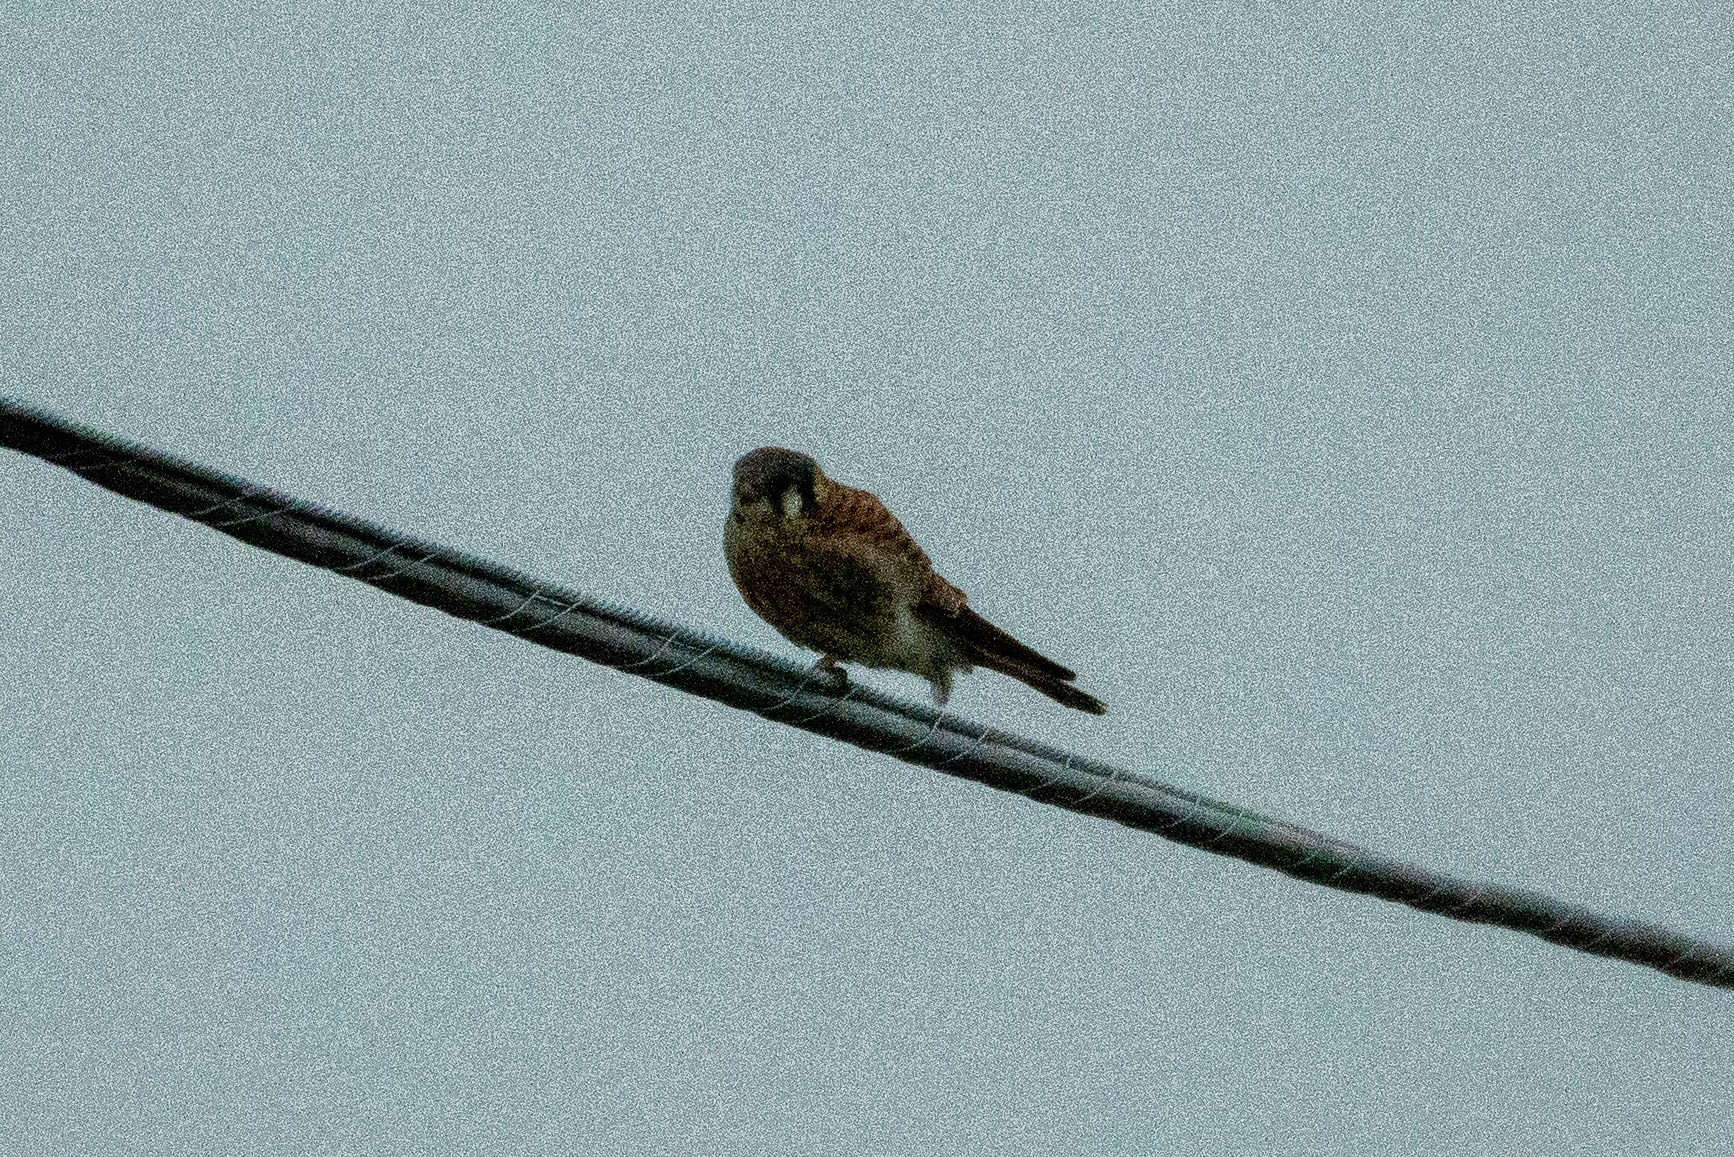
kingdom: Animalia
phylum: Chordata
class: Aves
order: Falconiformes
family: Falconidae
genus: Falco
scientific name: Falco sparverius
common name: American kestrel
